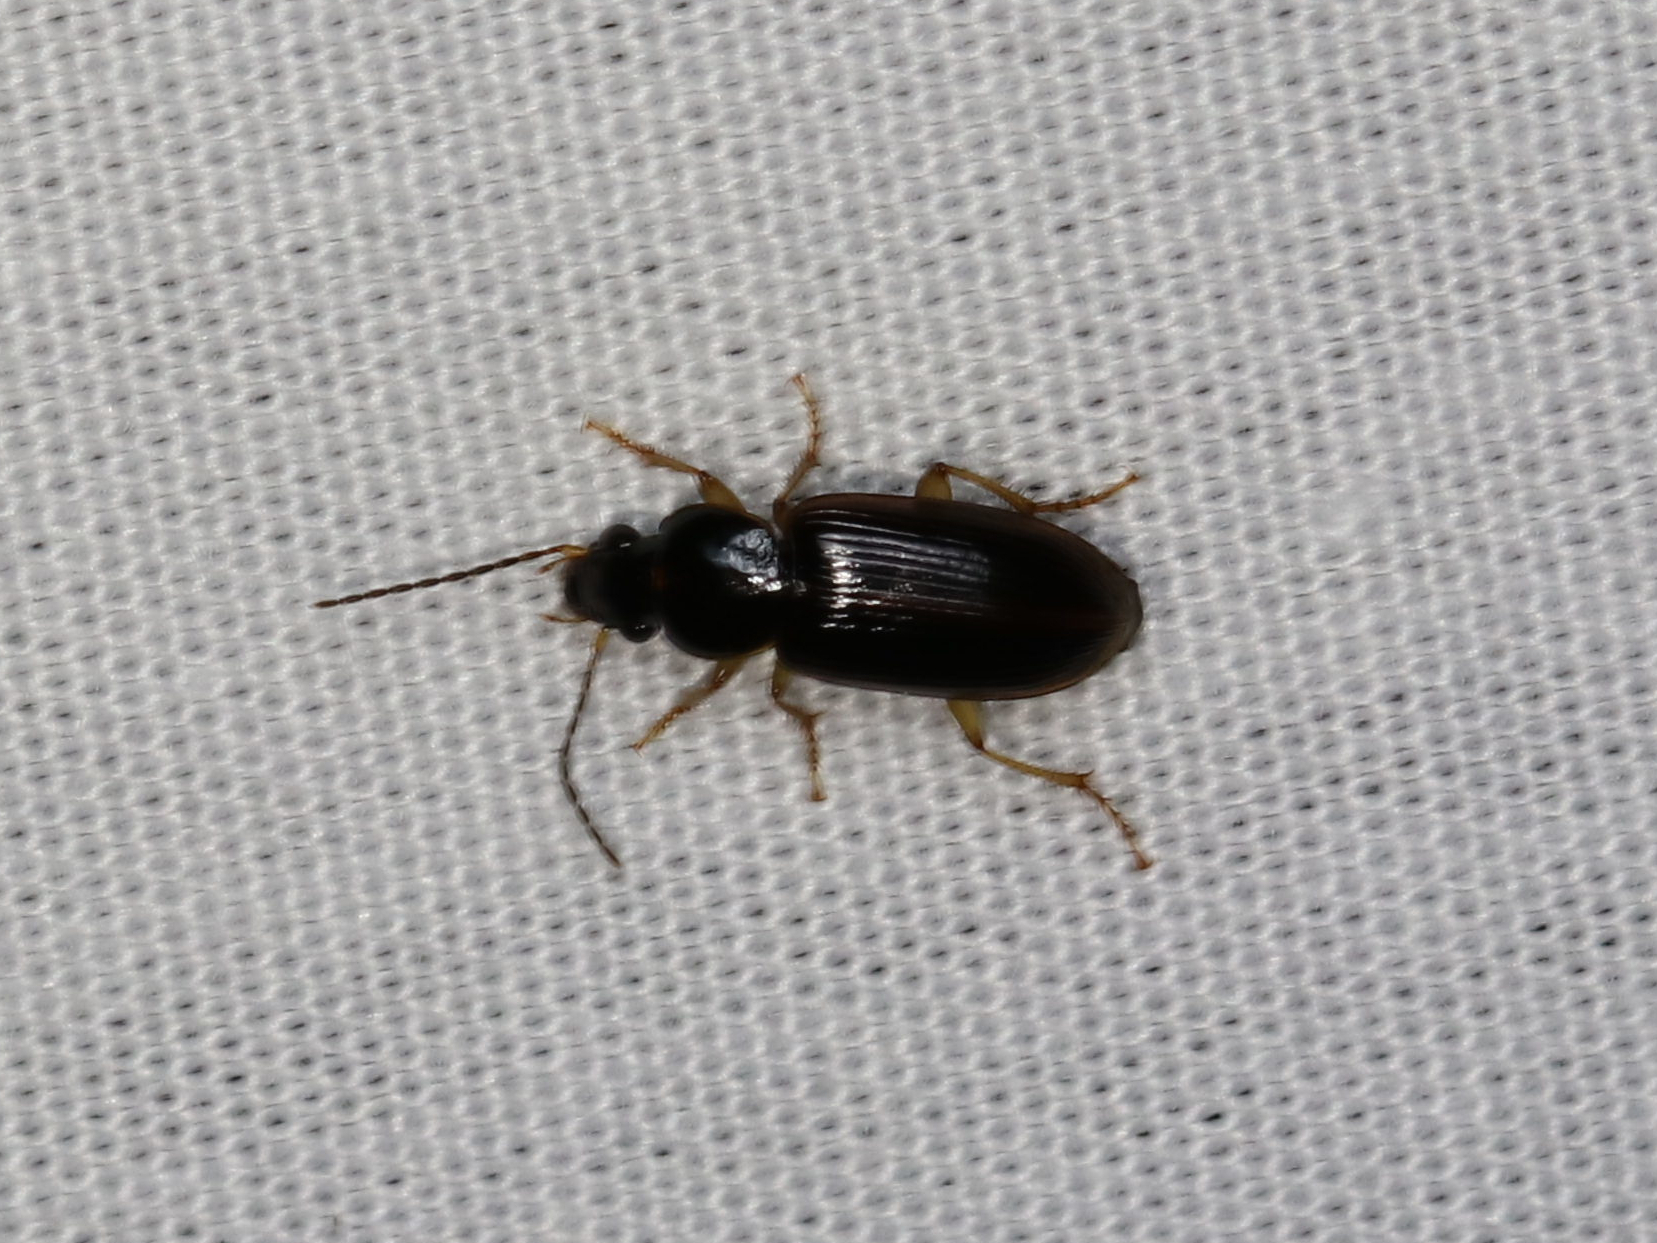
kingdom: Animalia
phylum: Arthropoda
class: Insecta
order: Coleoptera
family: Carabidae
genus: Stenolophus
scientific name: Stenolophus ochropezus
